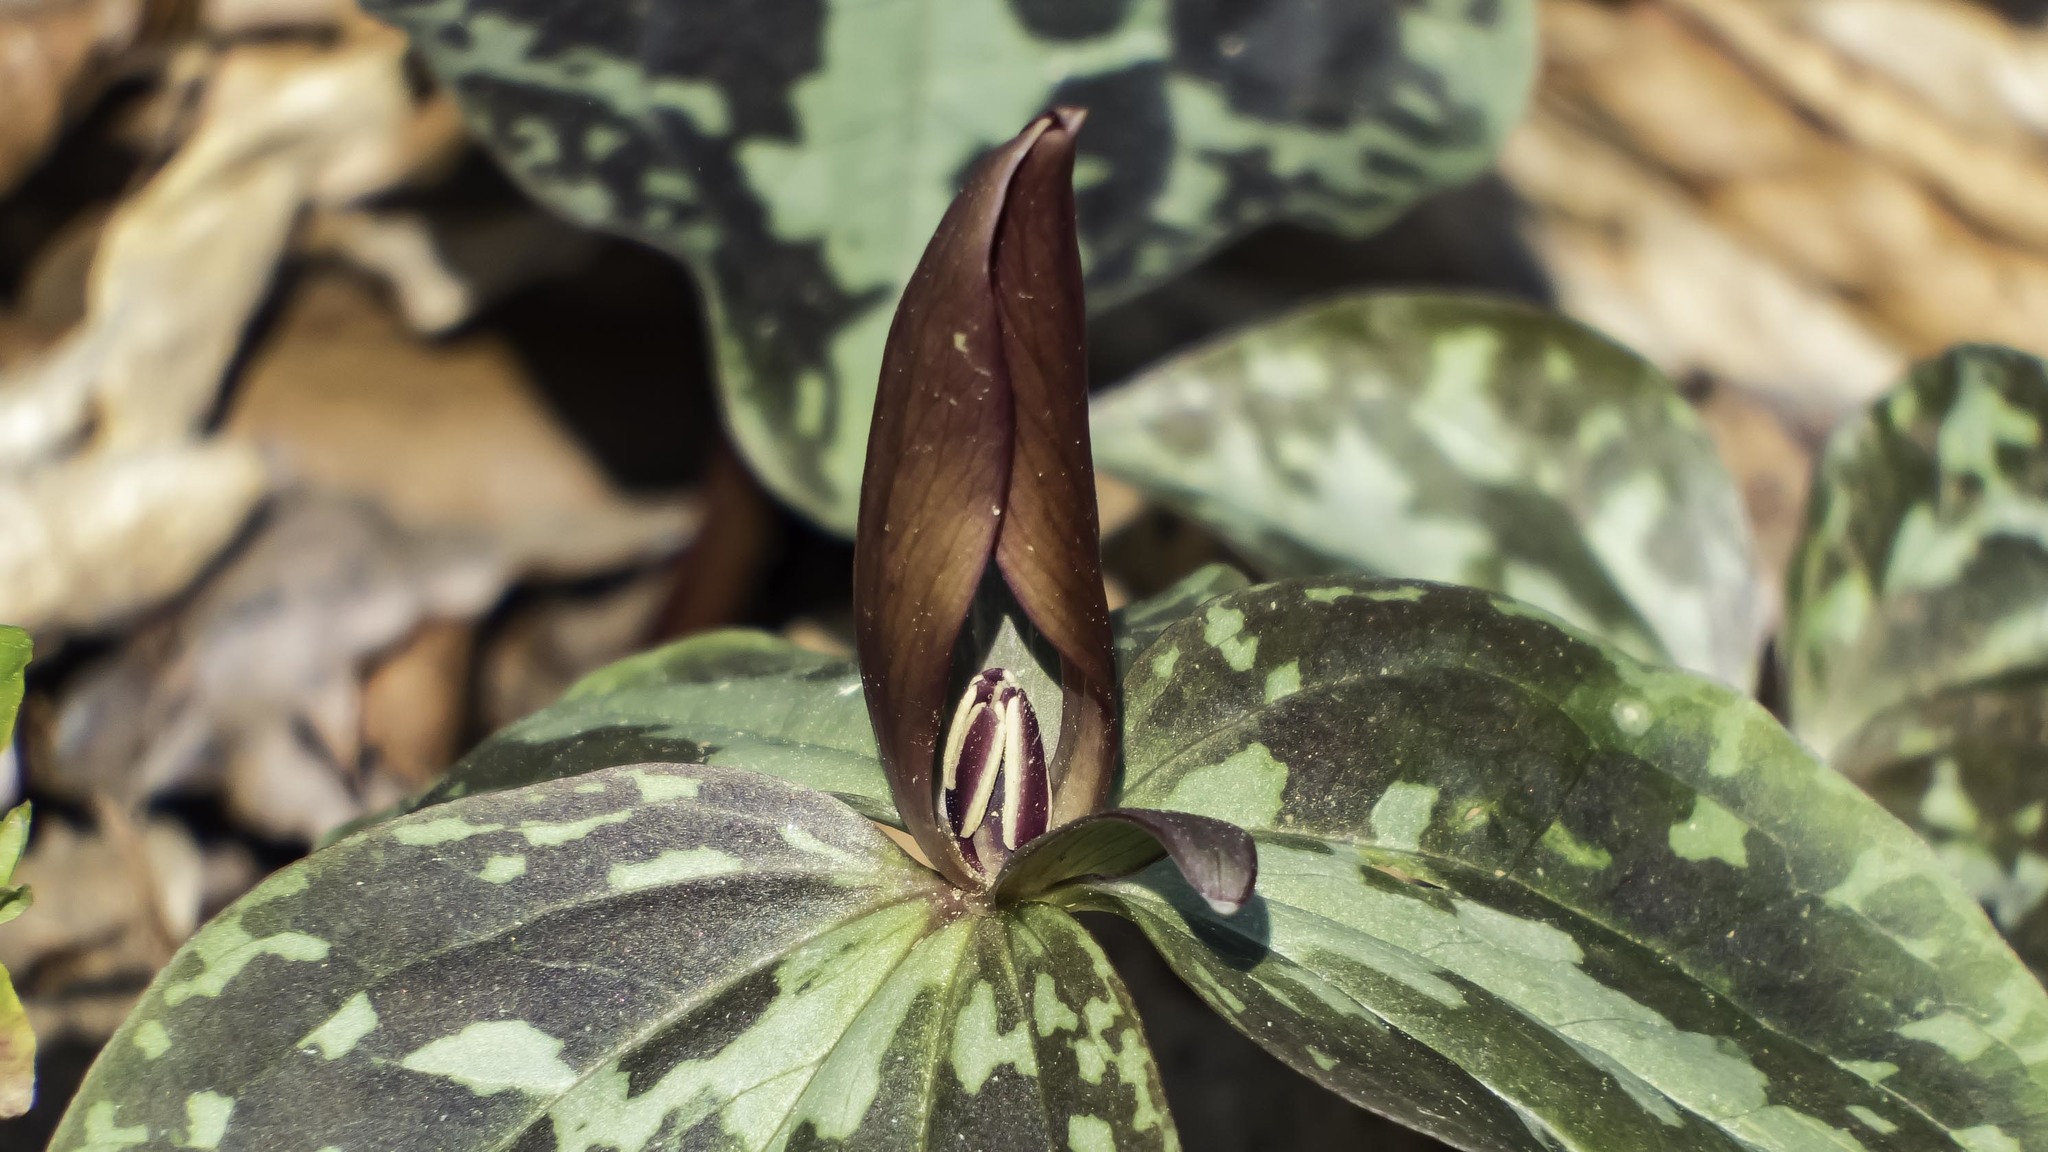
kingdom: Plantae
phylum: Tracheophyta
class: Liliopsida
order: Liliales
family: Melanthiaceae
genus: Trillium
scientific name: Trillium cuneatum
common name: Cuneate trillium
